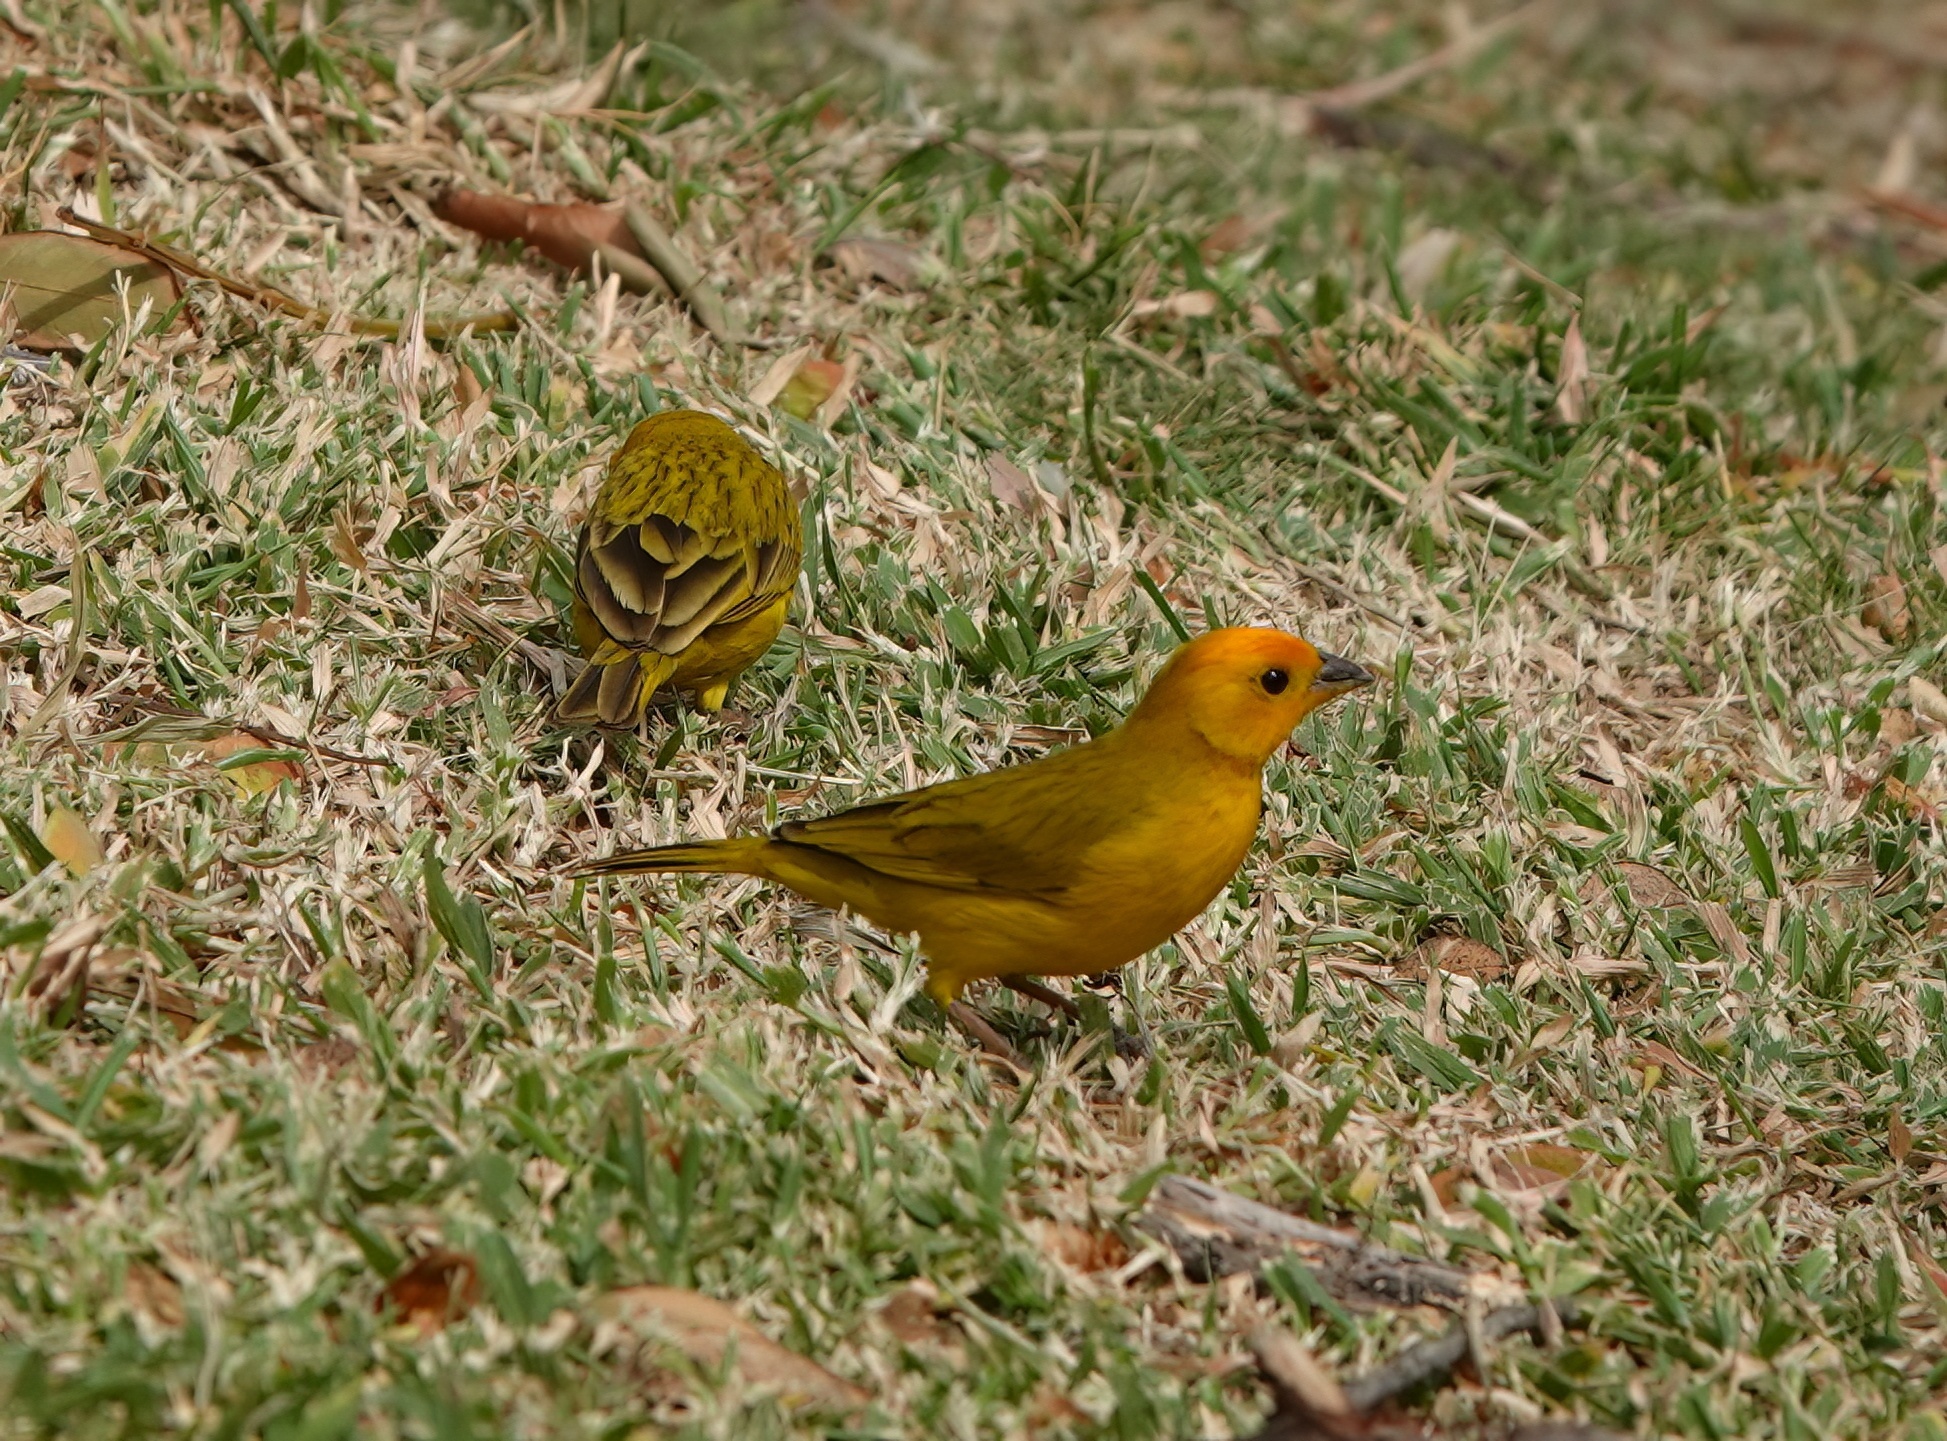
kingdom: Animalia
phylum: Chordata
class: Aves
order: Passeriformes
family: Thraupidae
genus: Sicalis
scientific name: Sicalis flaveola
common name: Saffron finch
